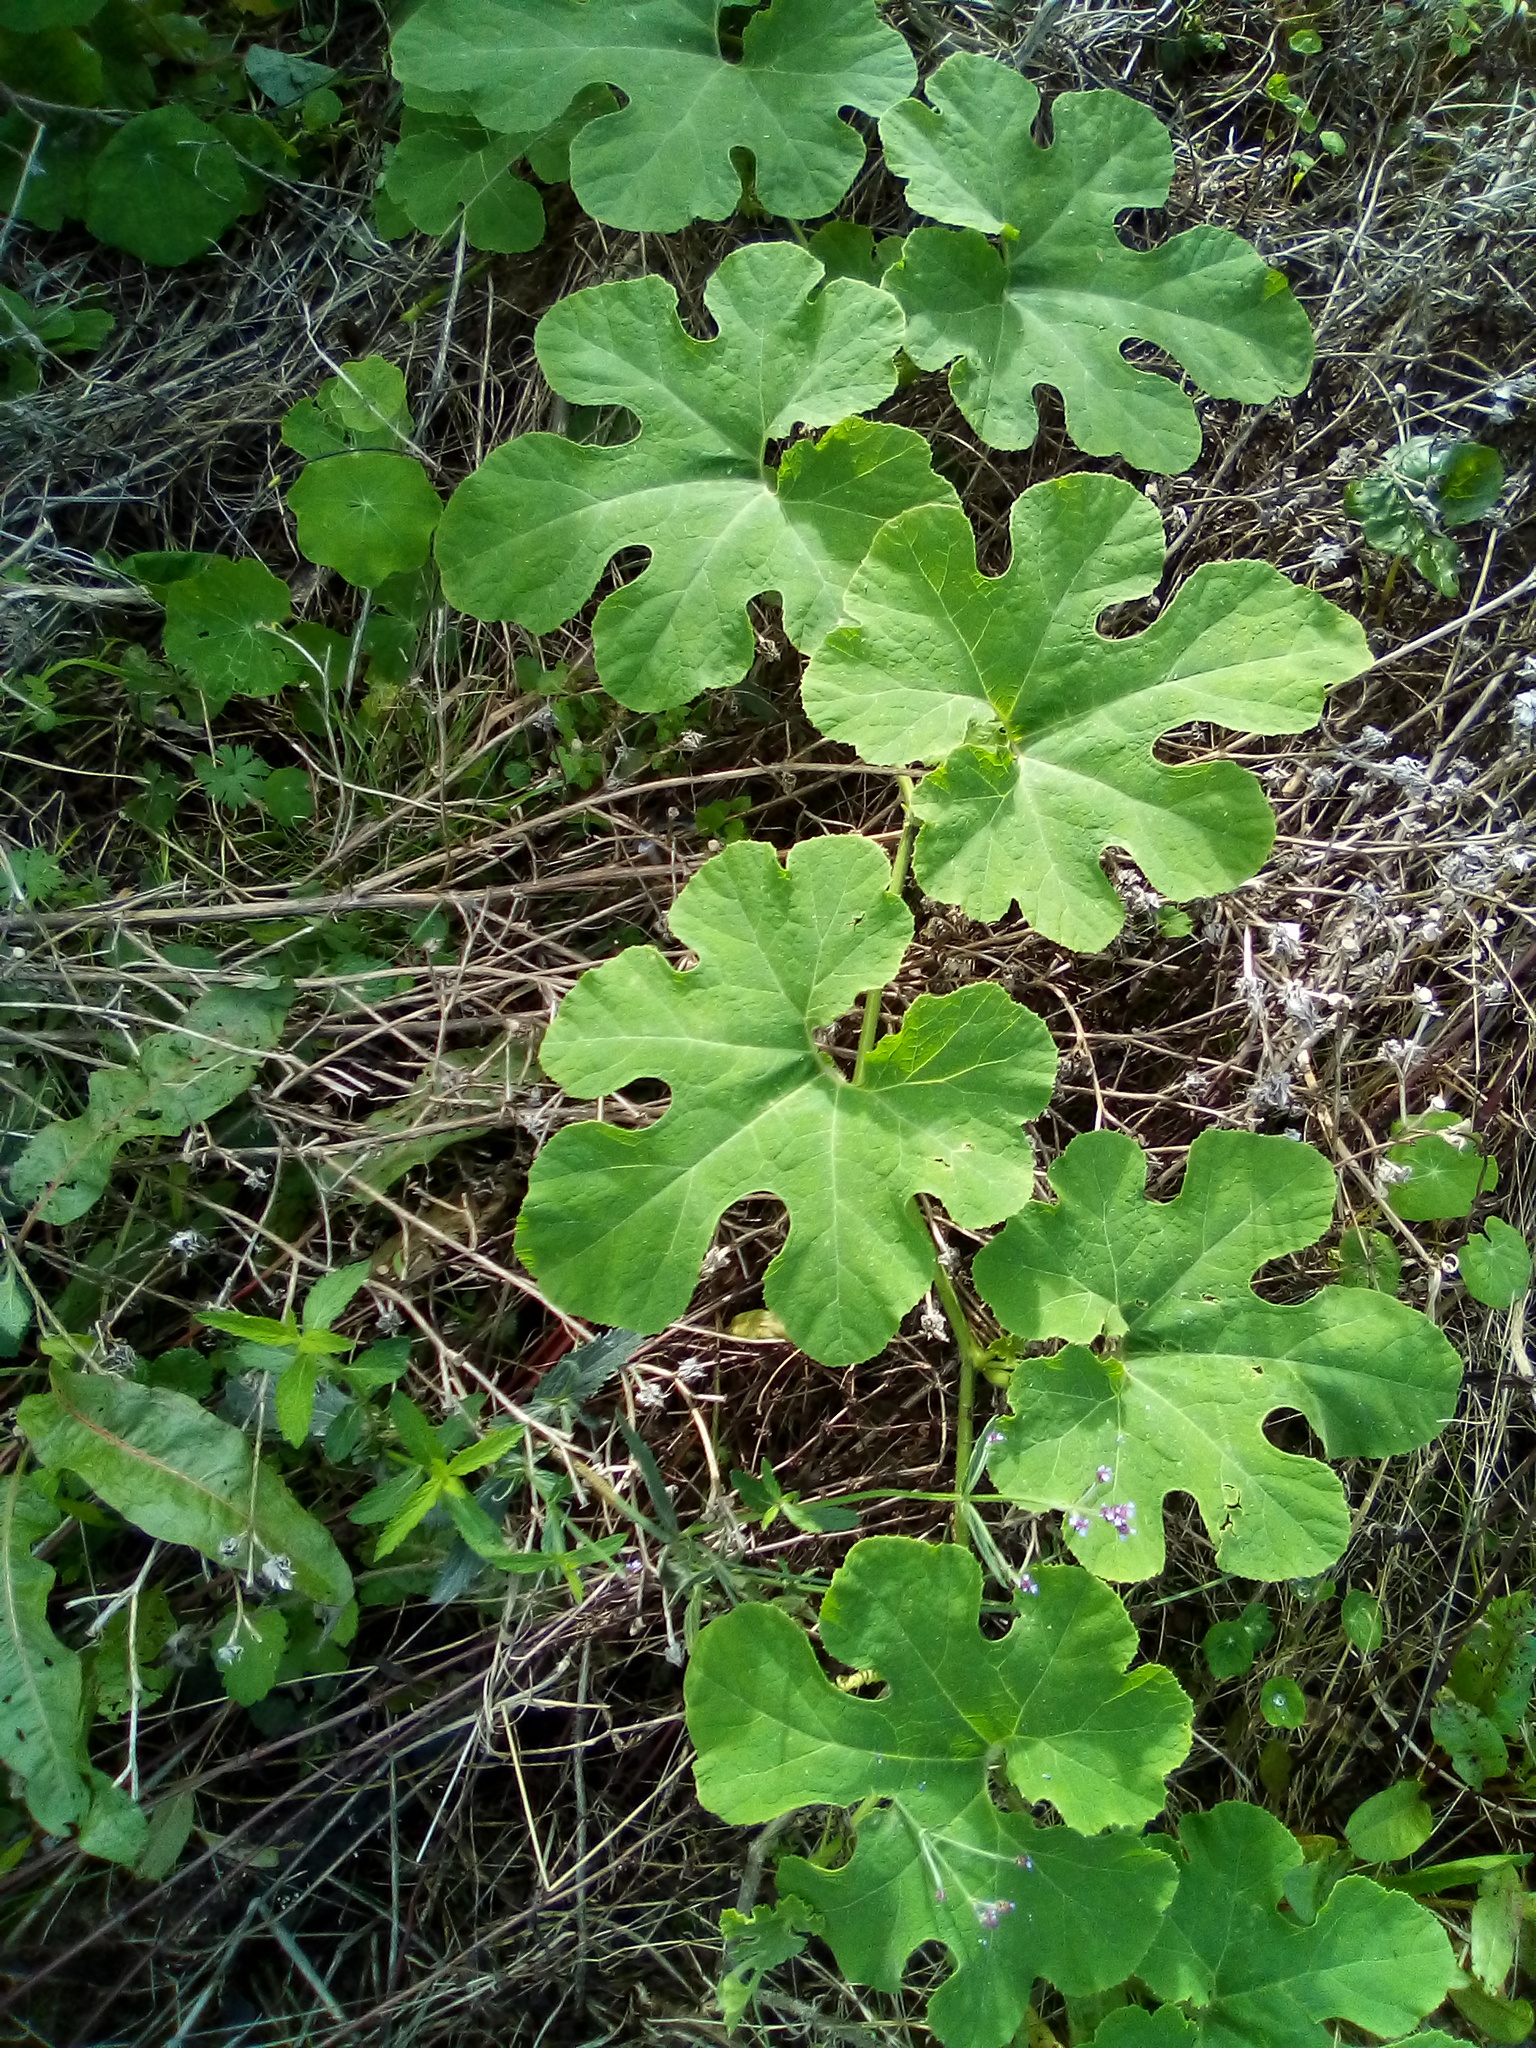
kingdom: Plantae
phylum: Tracheophyta
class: Magnoliopsida
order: Cucurbitales
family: Cucurbitaceae
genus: Cucurbita
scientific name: Cucurbita ficifolia
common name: Figleaf gourd
